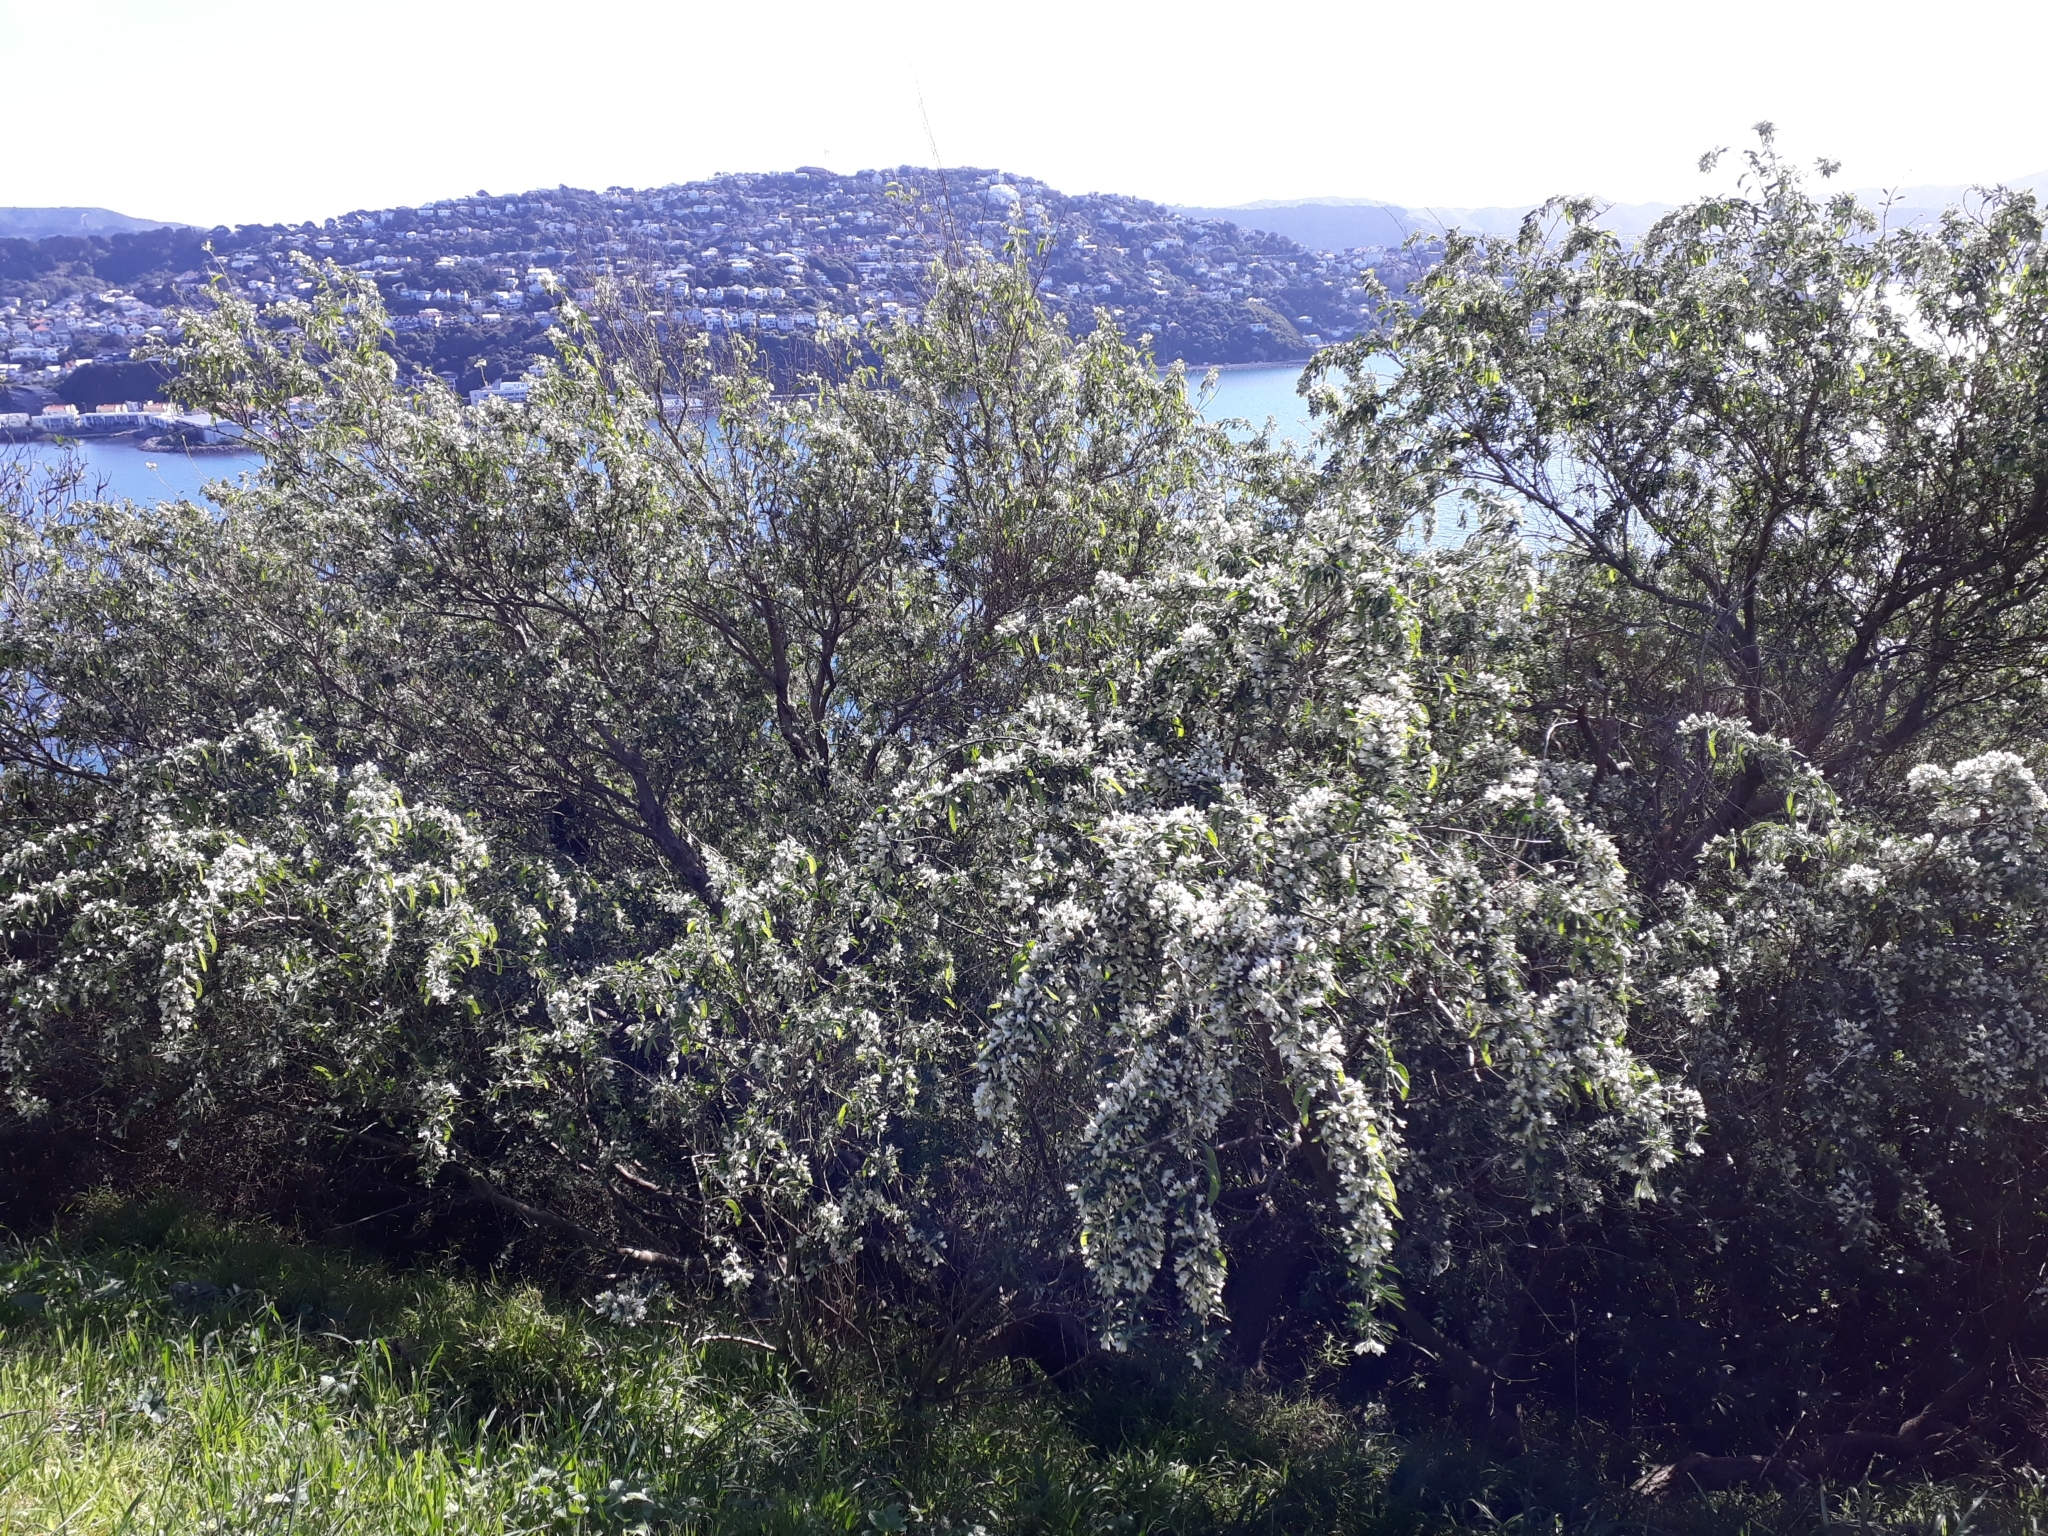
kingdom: Plantae
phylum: Tracheophyta
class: Magnoliopsida
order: Fabales
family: Fabaceae
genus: Chamaecytisus
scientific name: Chamaecytisus prolifer
